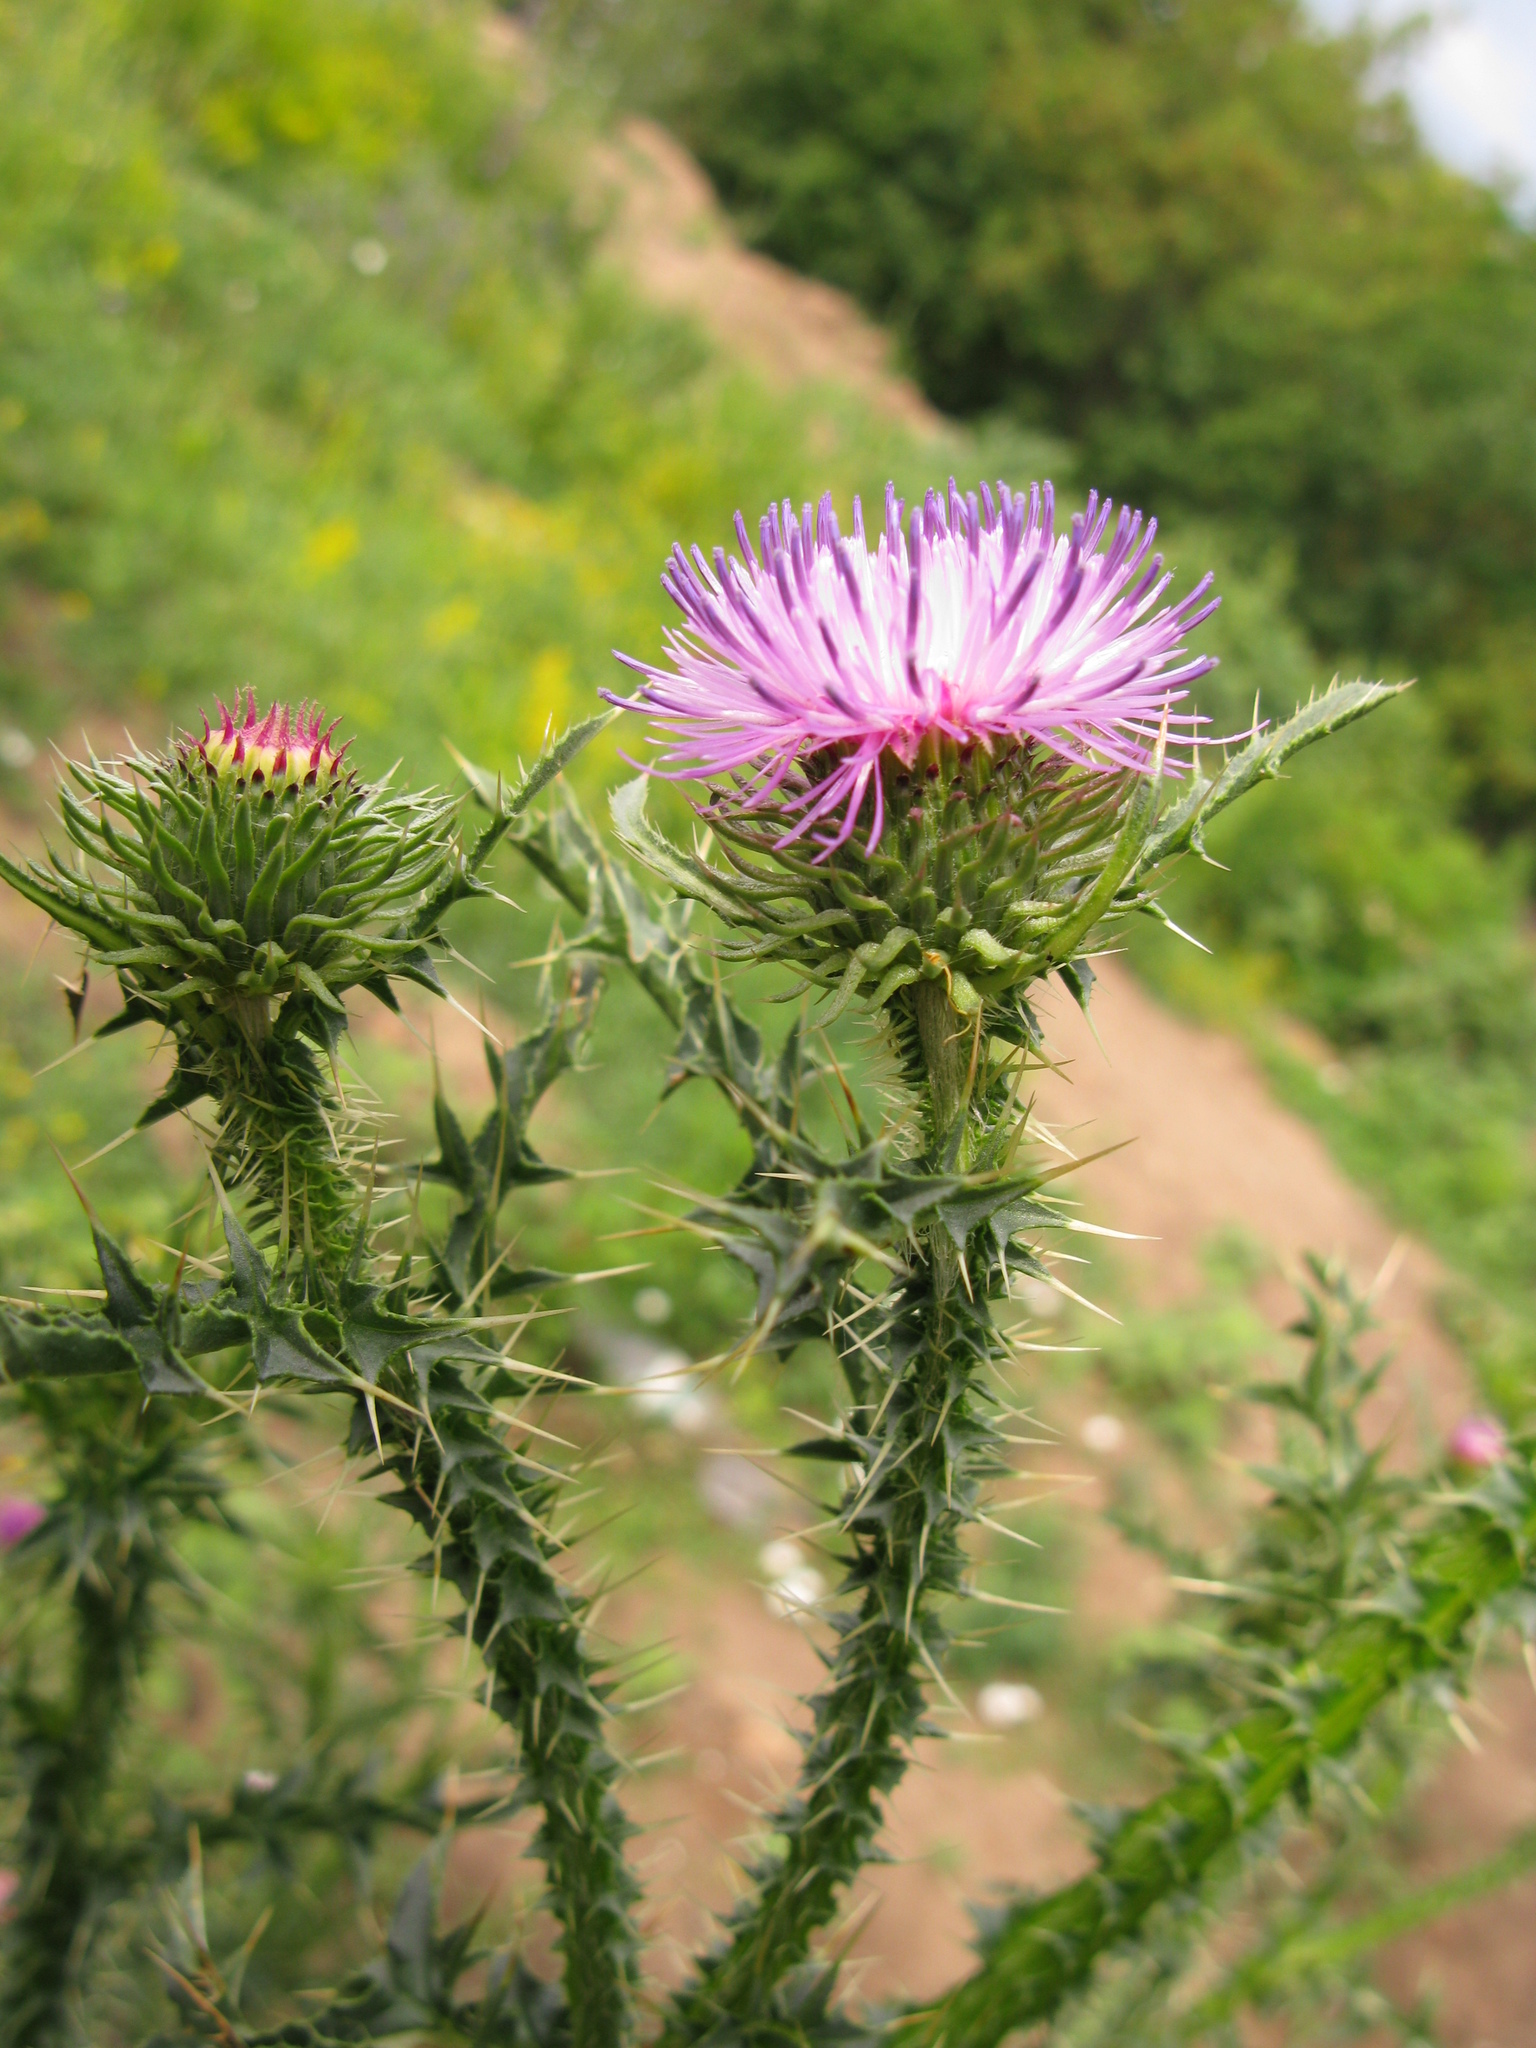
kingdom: Plantae
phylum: Tracheophyta
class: Magnoliopsida
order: Asterales
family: Asteraceae
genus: Carduus
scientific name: Carduus acanthoides
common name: Plumeless thistle
